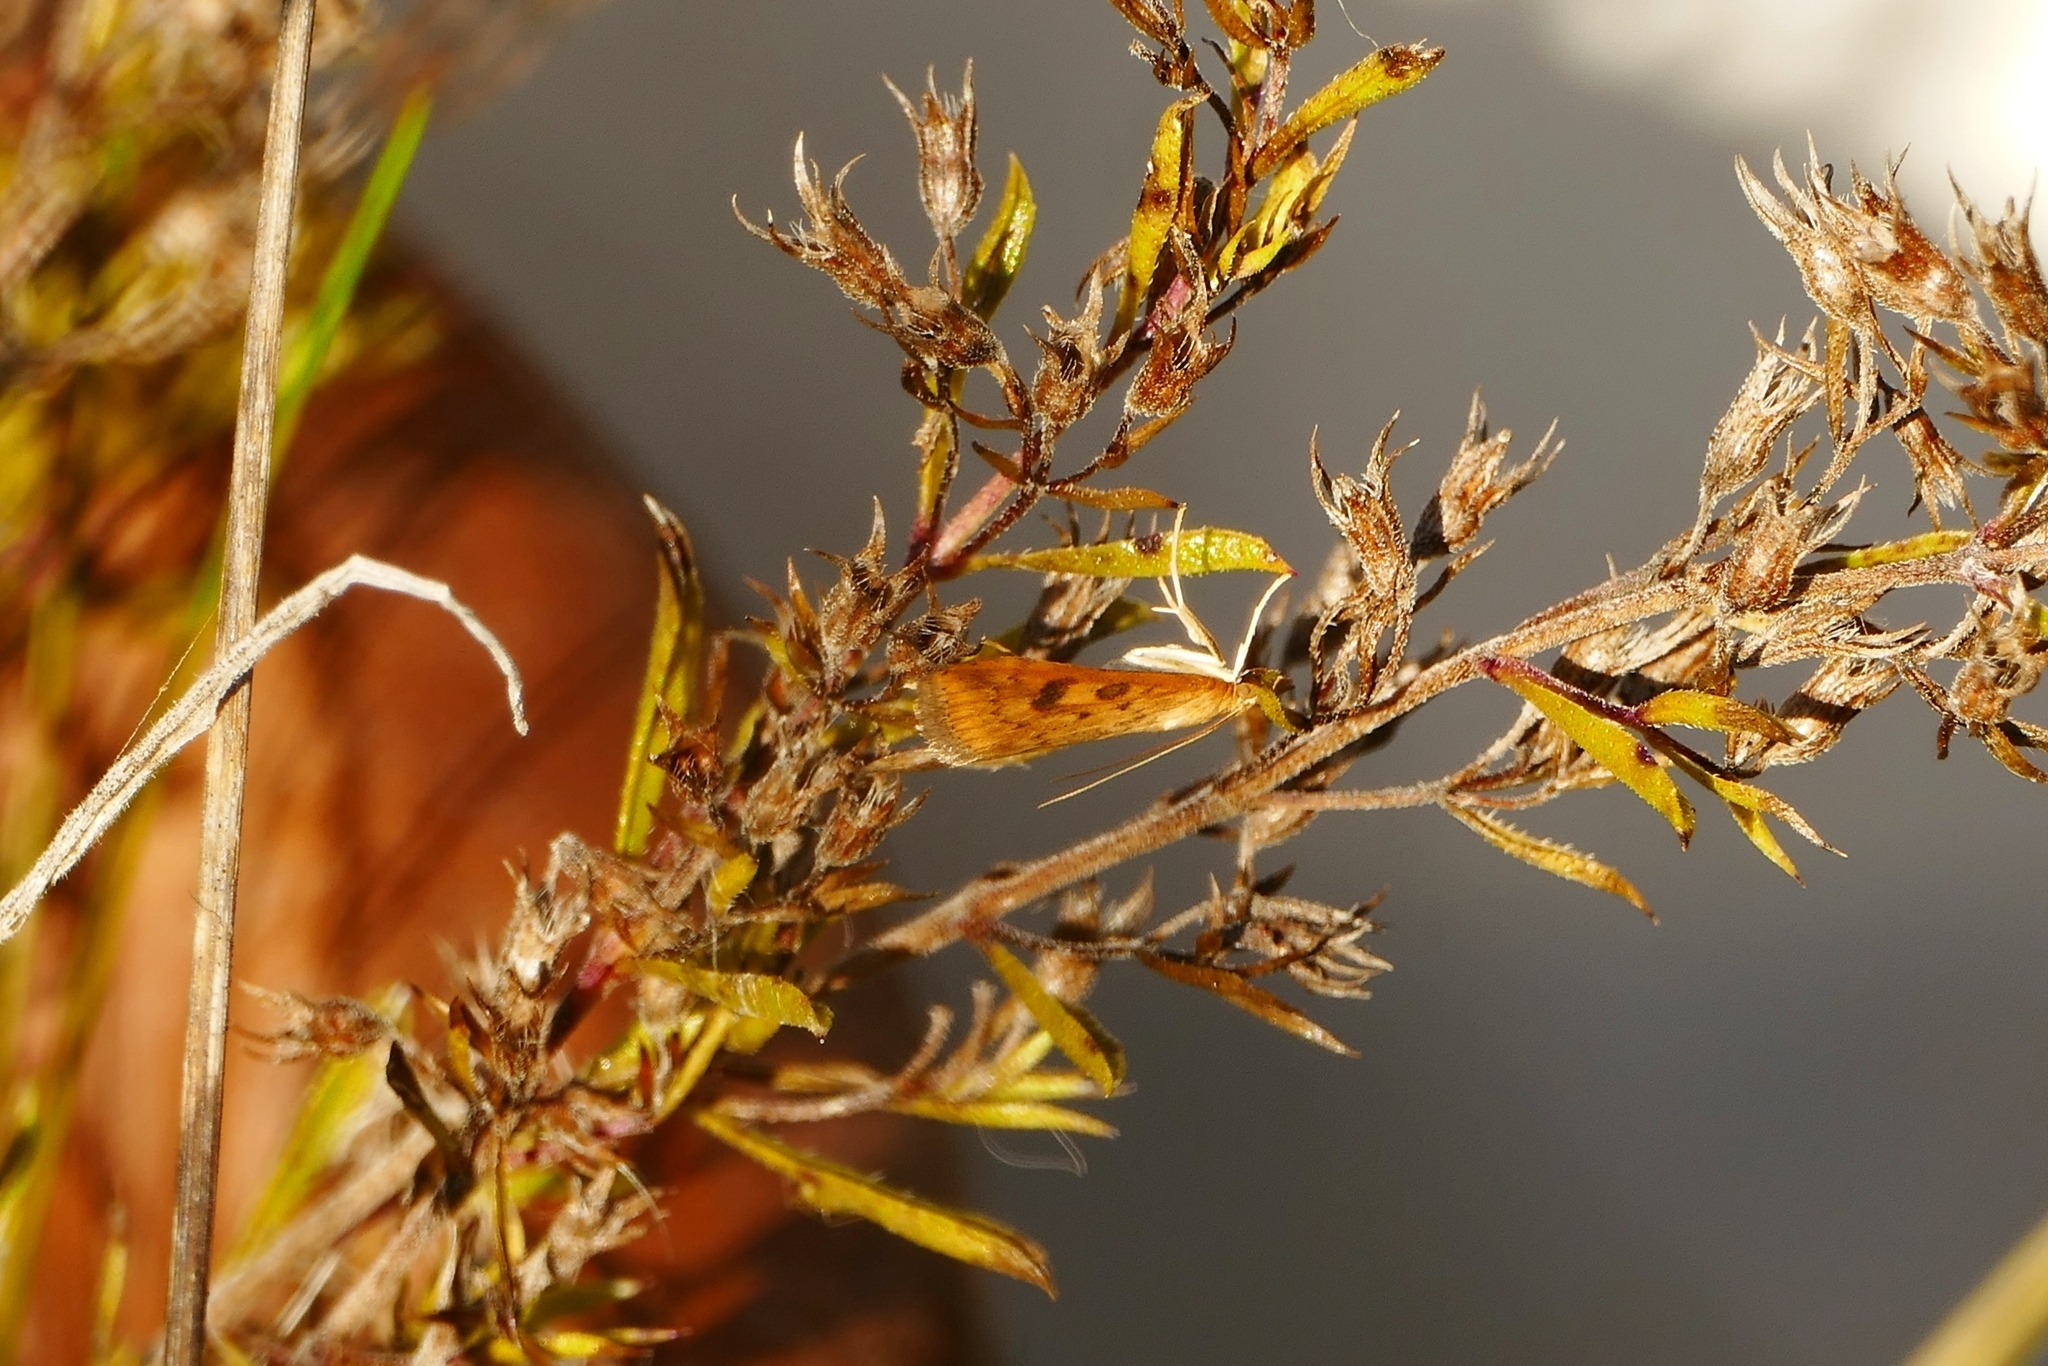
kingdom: Animalia
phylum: Arthropoda
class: Insecta
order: Lepidoptera
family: Crambidae
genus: Udea
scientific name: Udea ferrugalis
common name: Rusty dot
